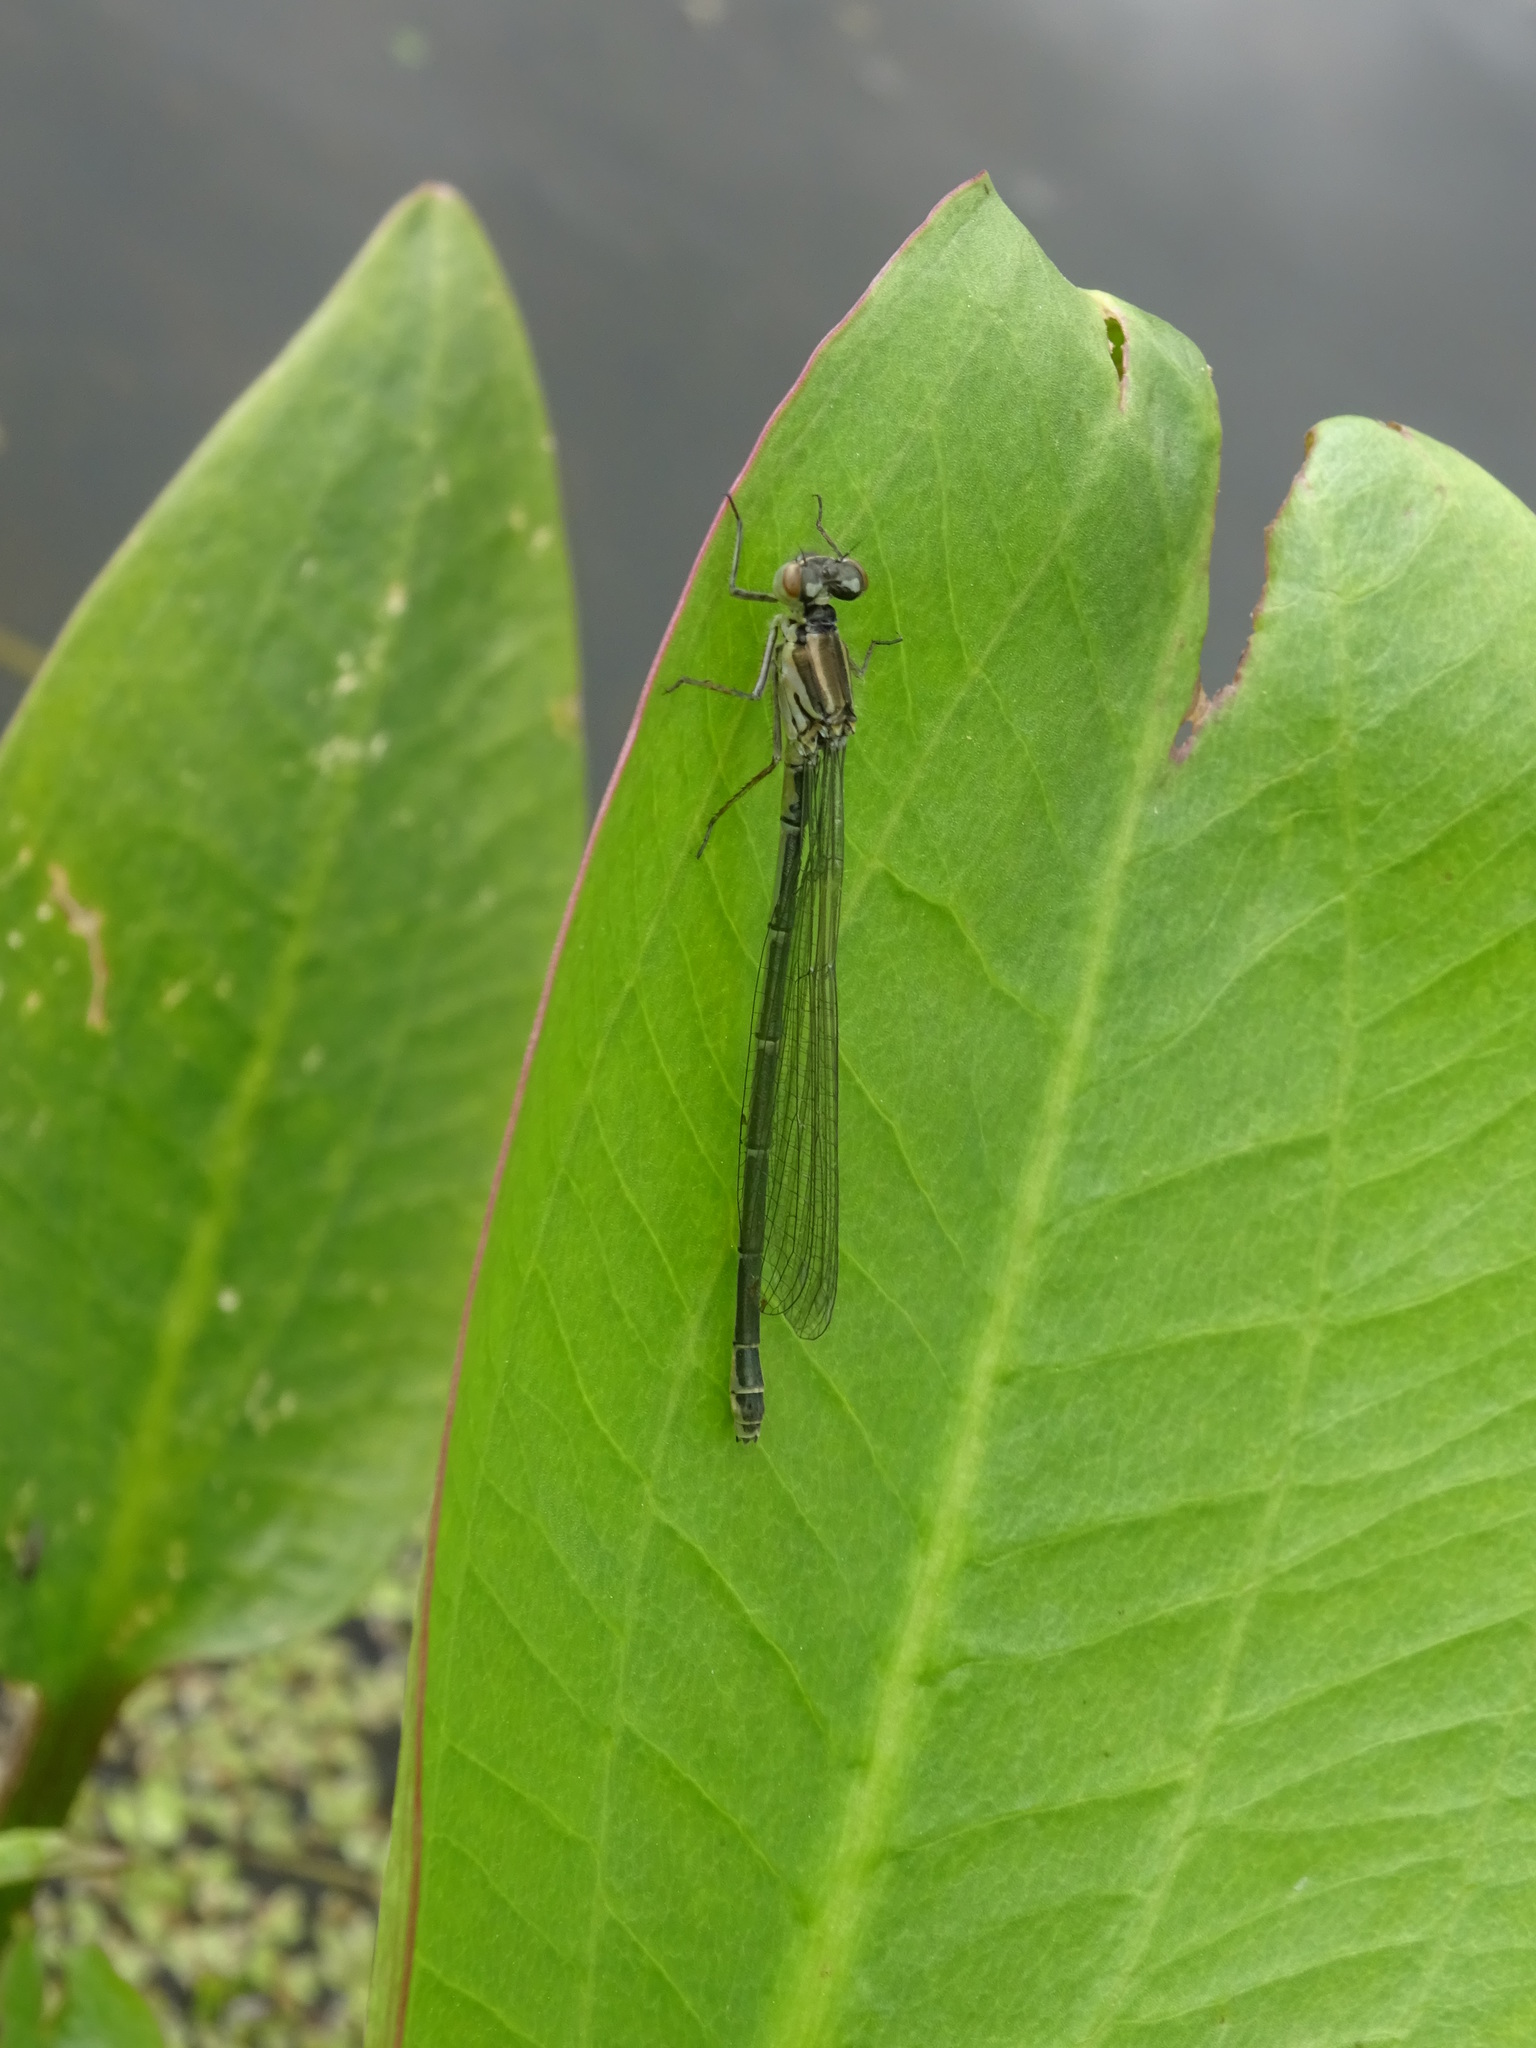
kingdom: Animalia
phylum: Arthropoda
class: Insecta
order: Odonata
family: Coenagrionidae
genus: Coenagrion
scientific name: Coenagrion puella
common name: Azure damselfly
